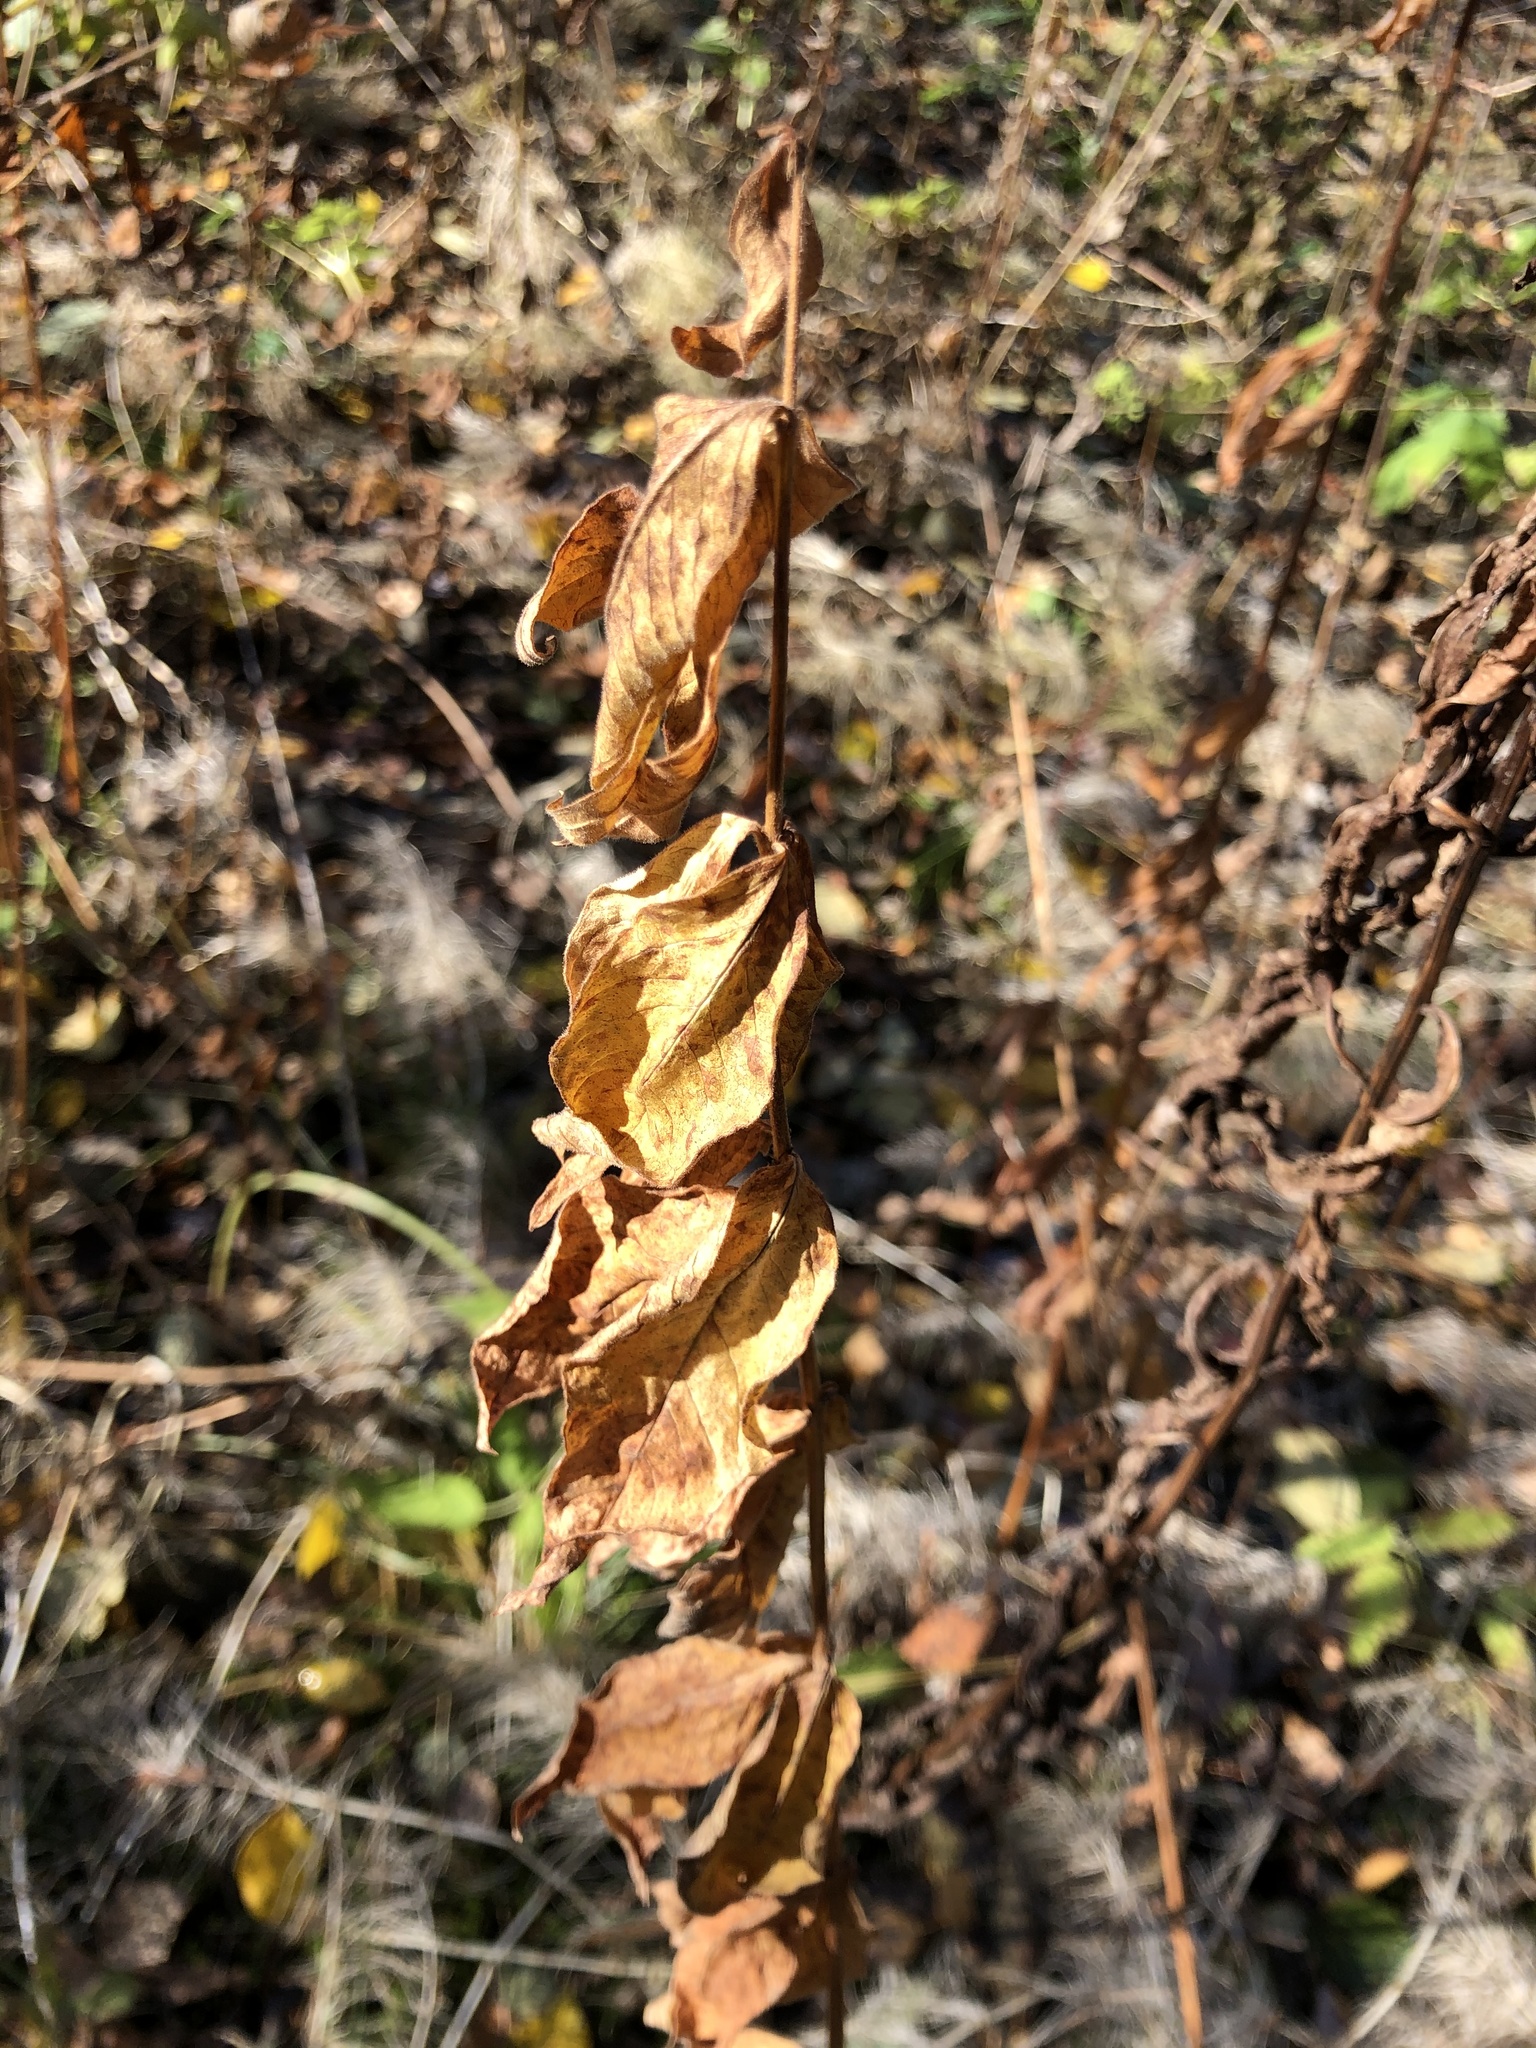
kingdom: Plantae
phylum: Tracheophyta
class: Magnoliopsida
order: Ericales
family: Primulaceae
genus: Lysimachia
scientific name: Lysimachia vulgaris
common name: Yellow loosestrife
